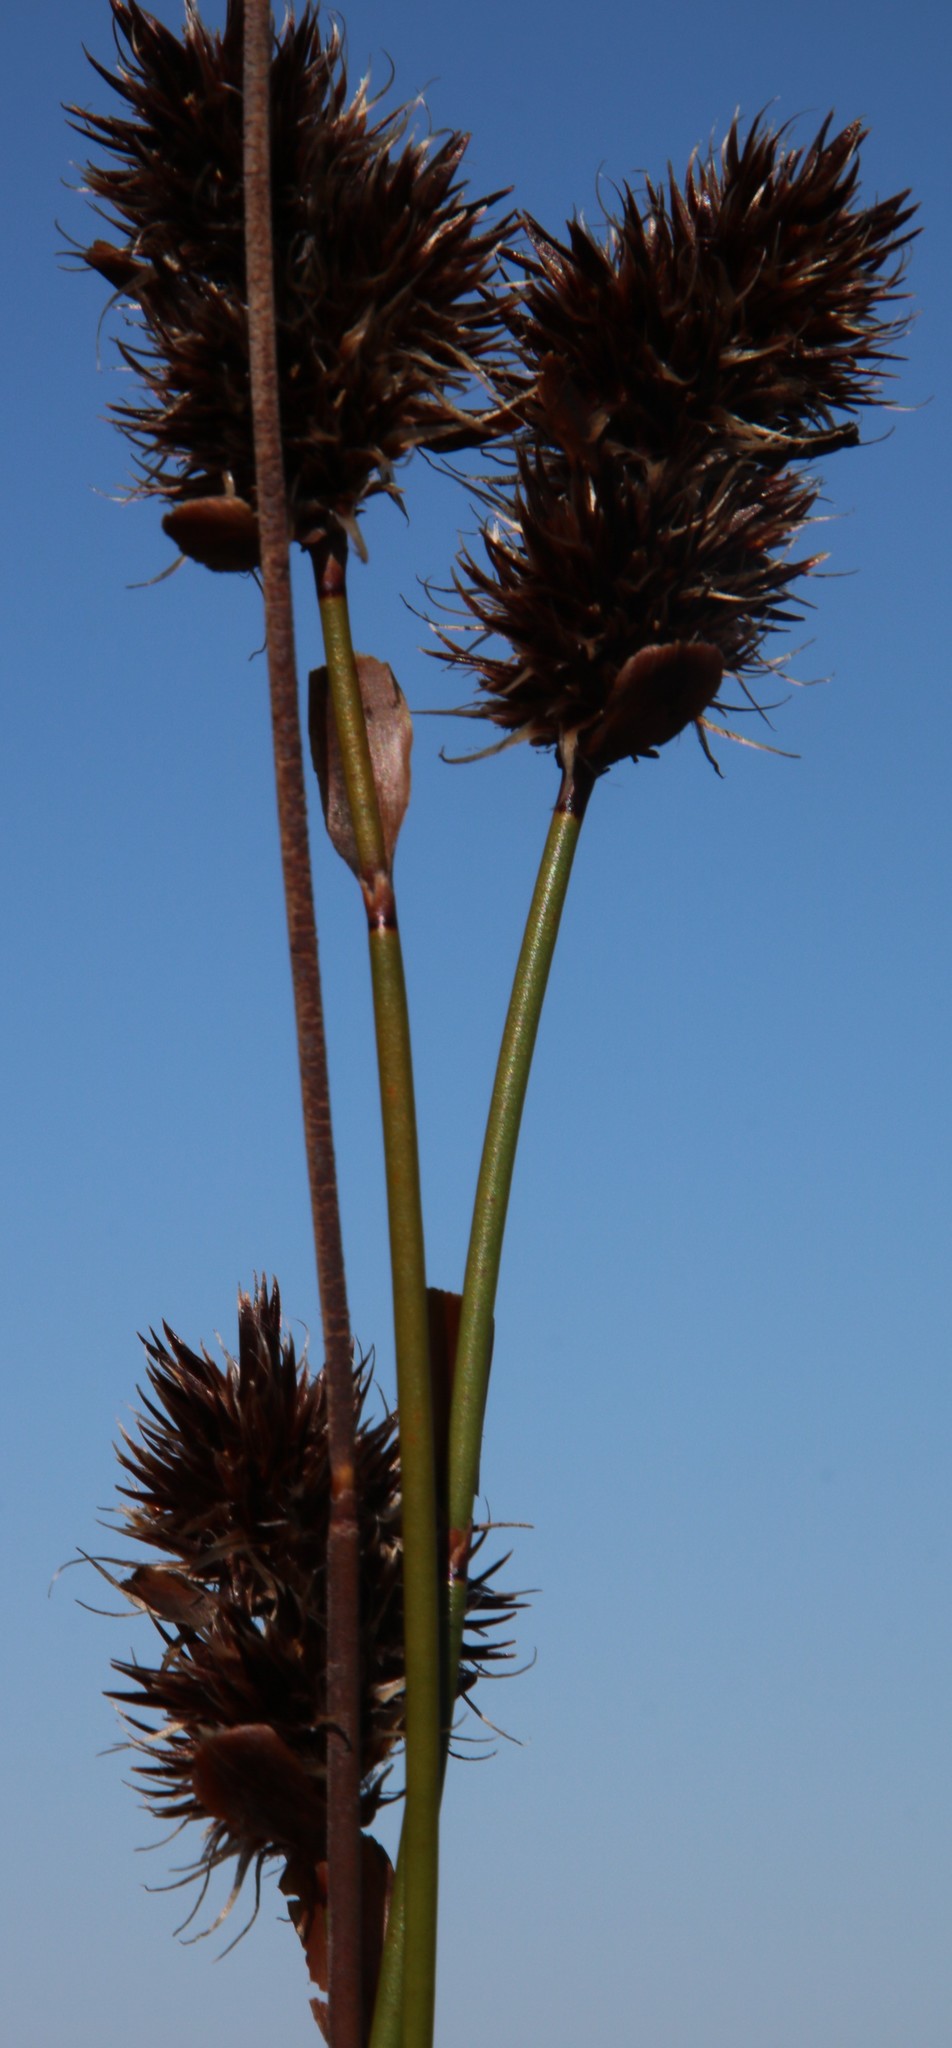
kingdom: Plantae
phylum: Tracheophyta
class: Liliopsida
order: Poales
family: Restionaceae
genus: Askidiosperma
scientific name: Askidiosperma capitatum
